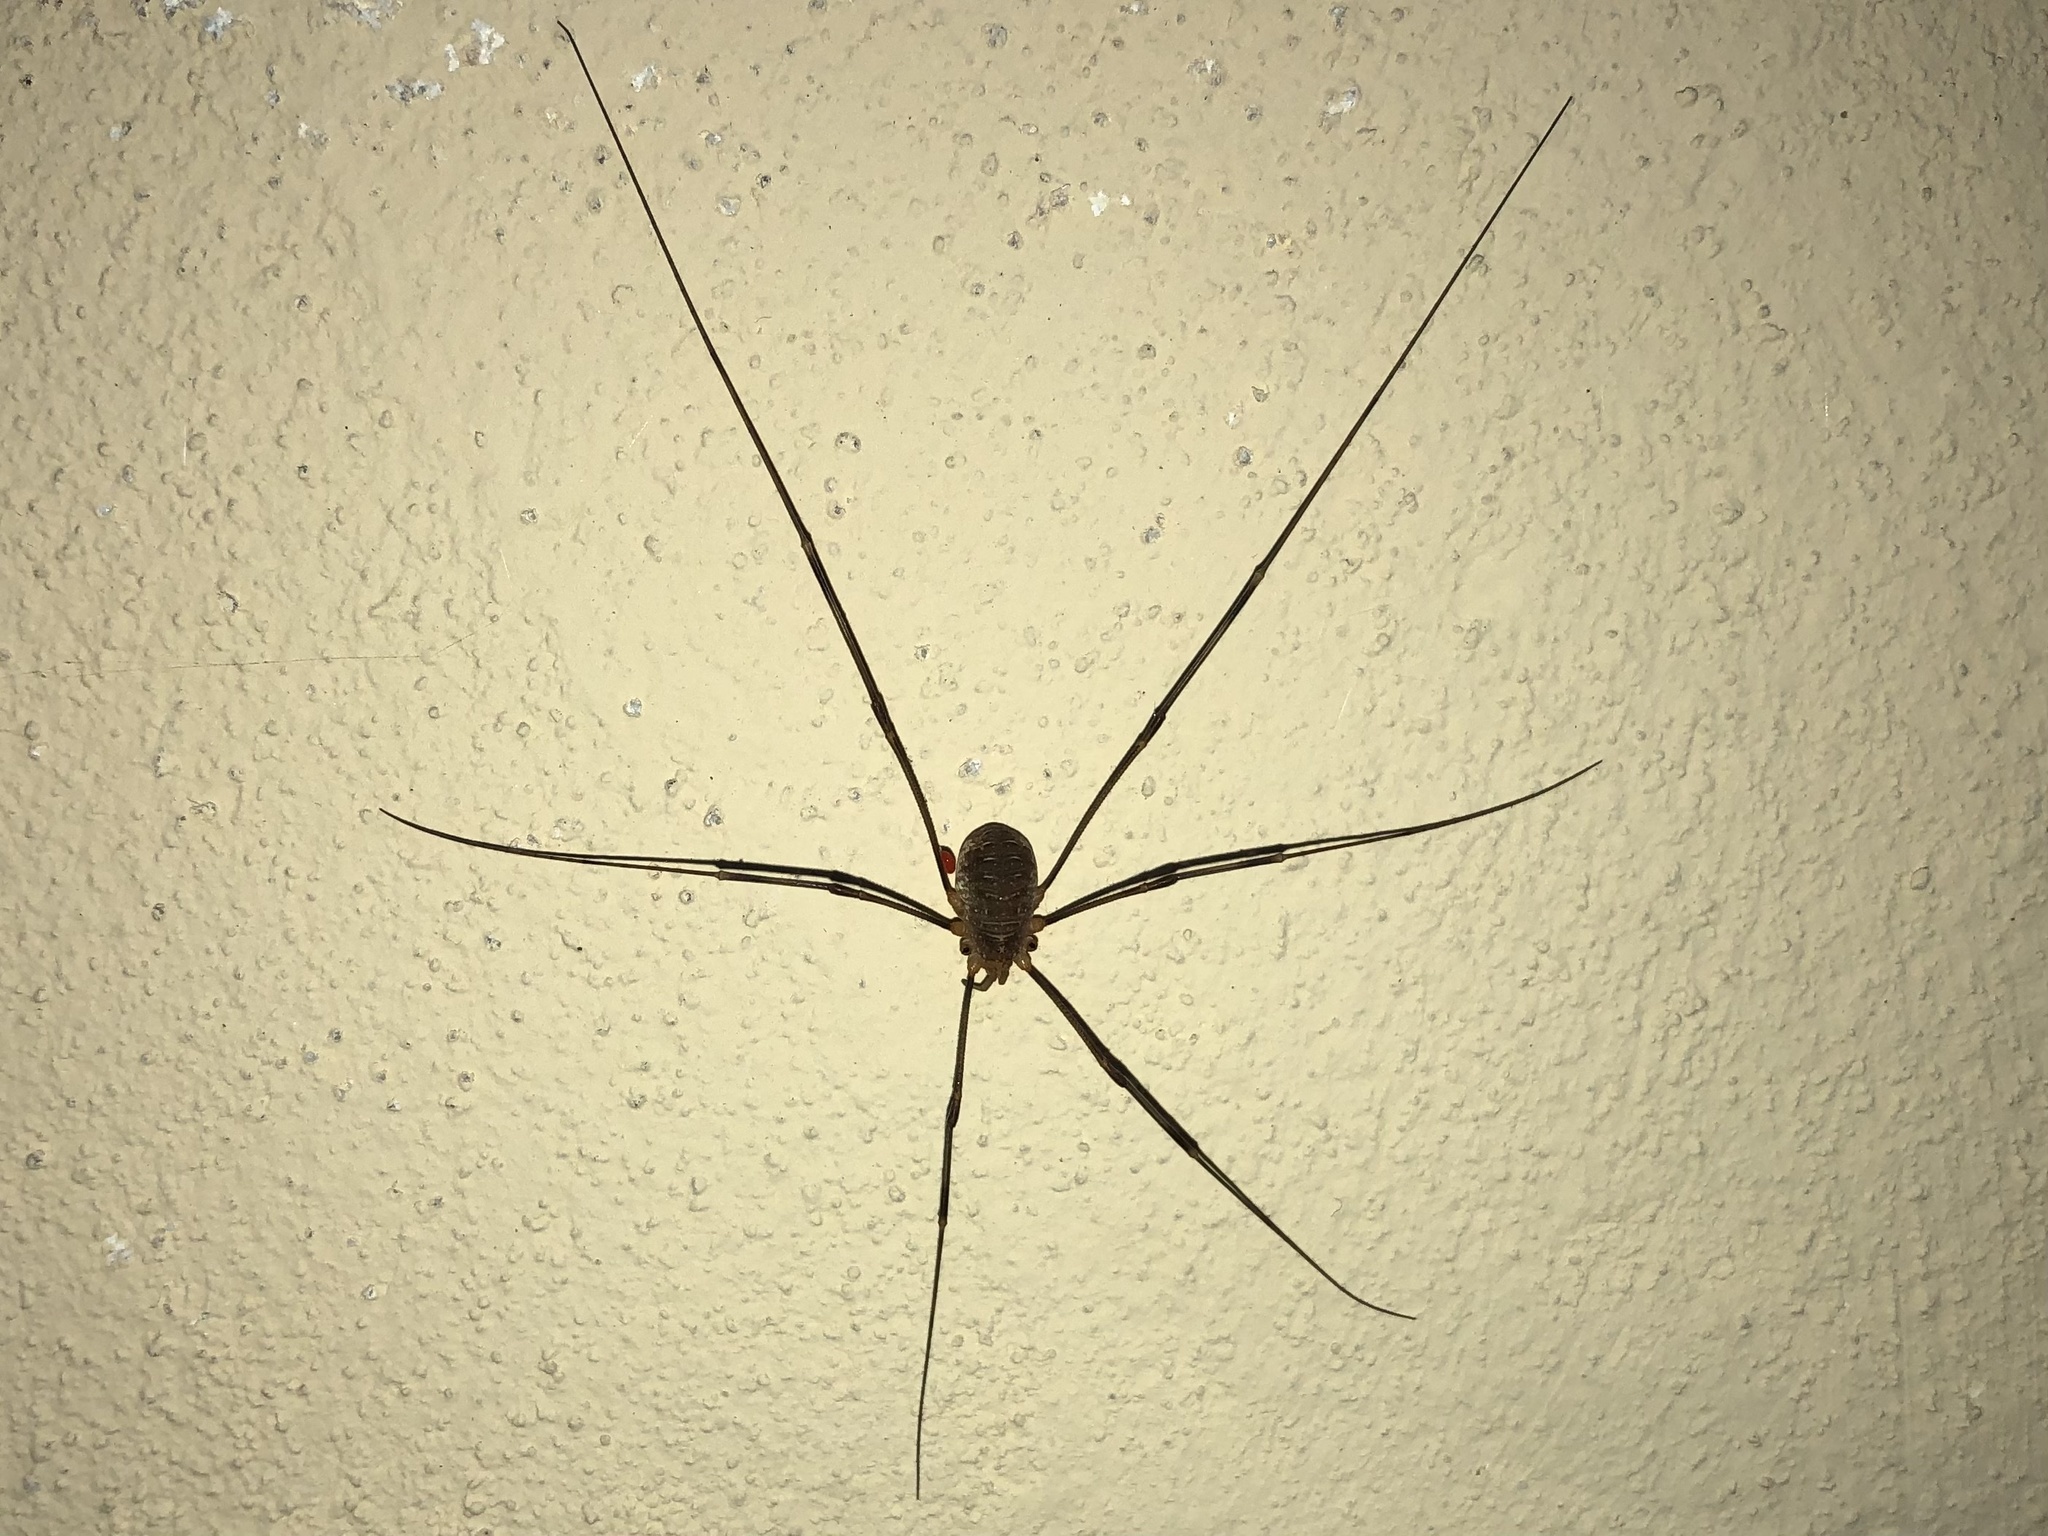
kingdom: Animalia
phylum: Arthropoda
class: Arachnida
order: Opiliones
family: Phalangiidae
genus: Opilio
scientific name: Opilio canestrinii
